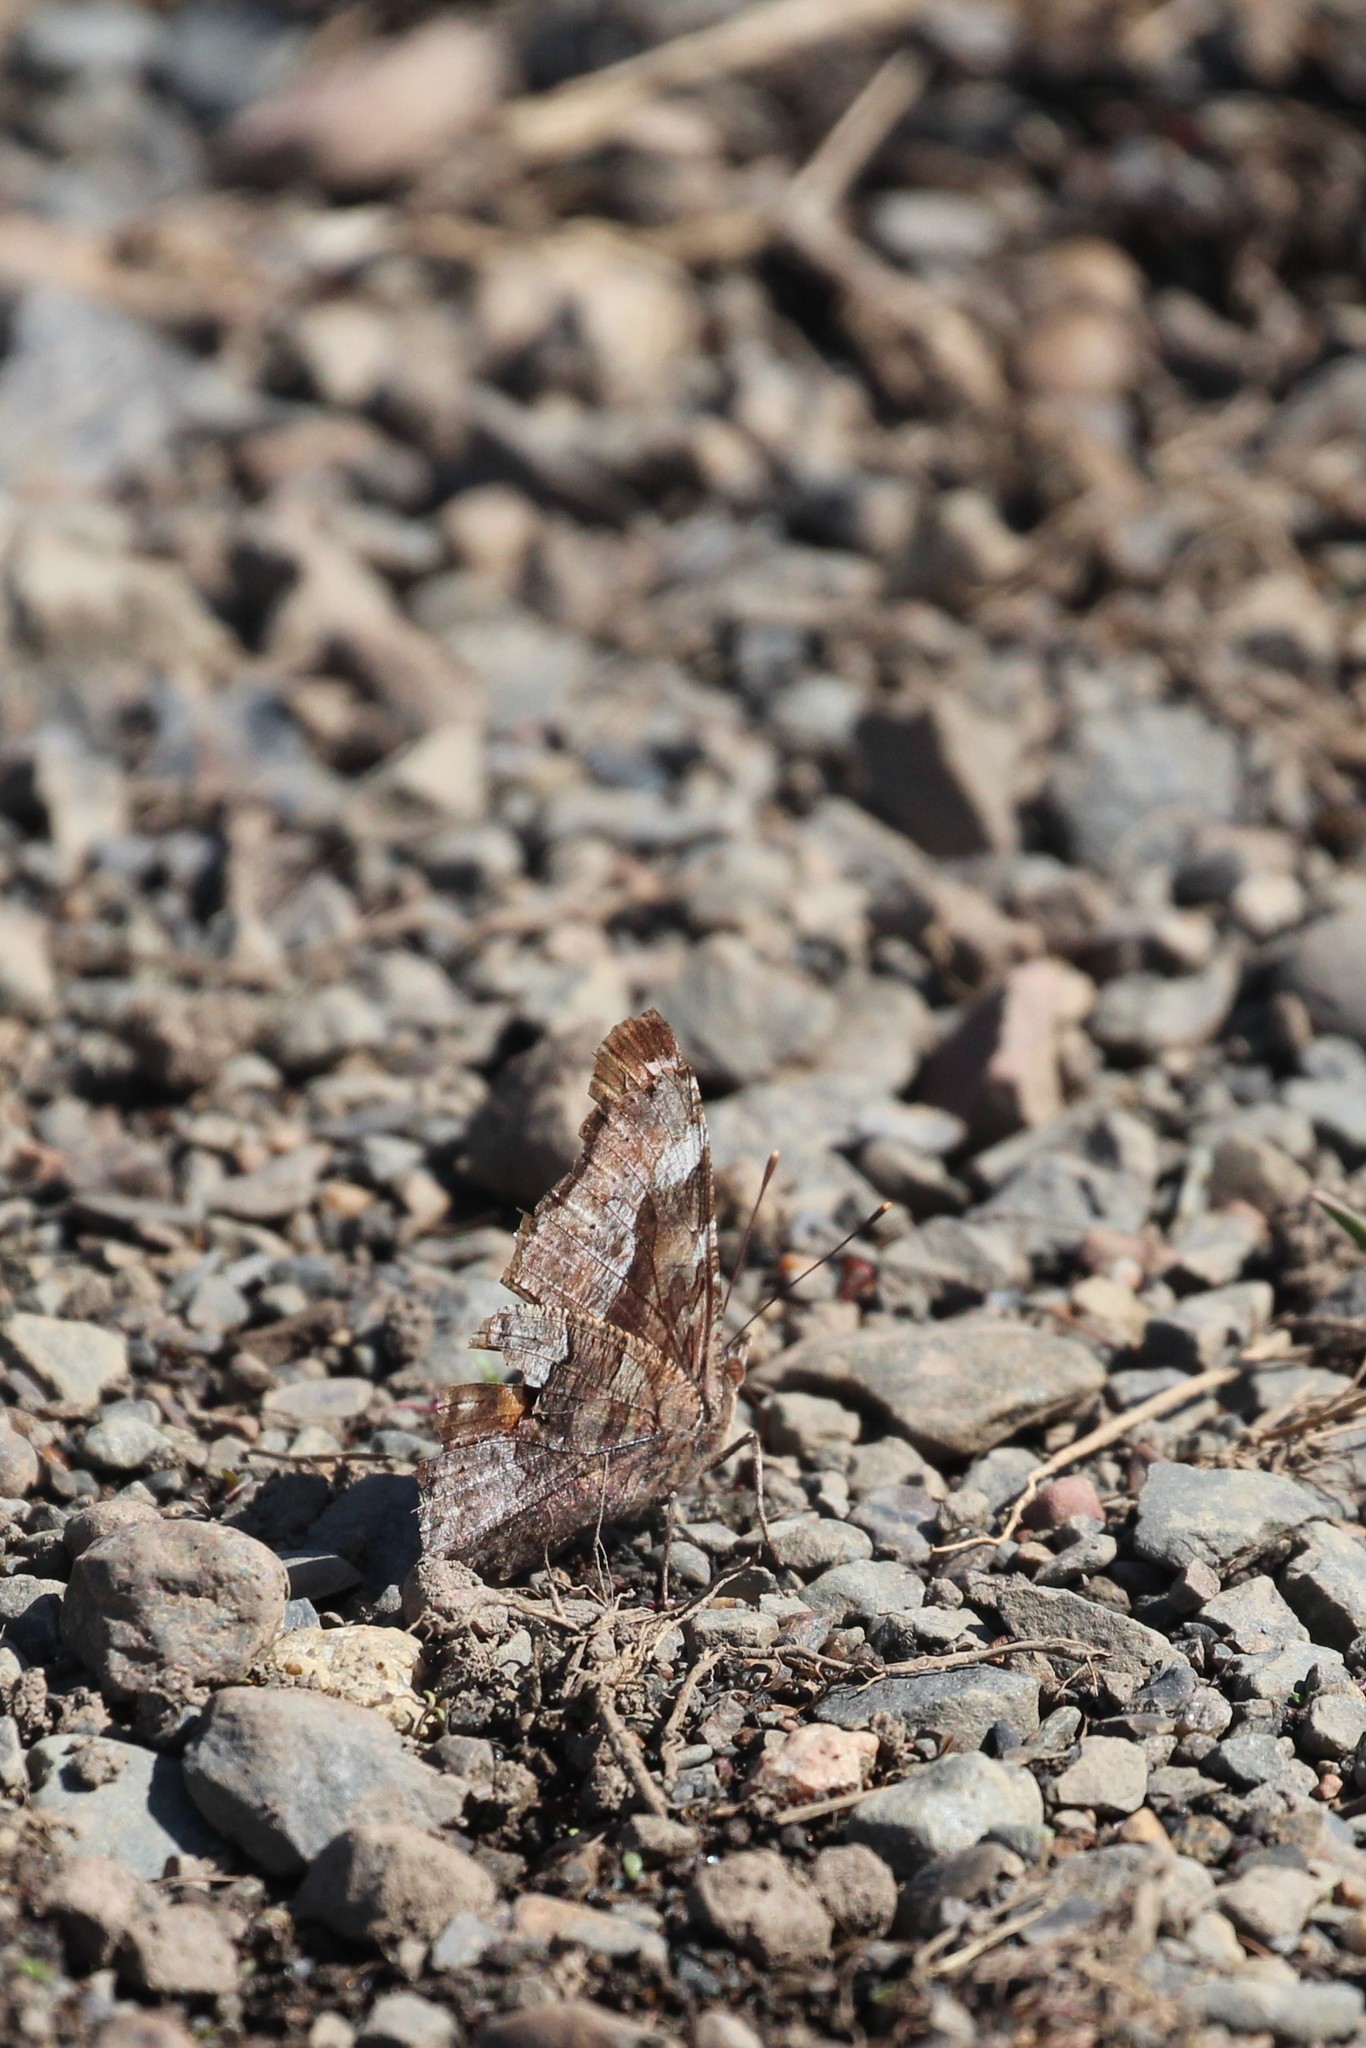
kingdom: Animalia
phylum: Arthropoda
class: Insecta
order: Lepidoptera
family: Nymphalidae
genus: Polygonia
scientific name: Polygonia vaualbum
